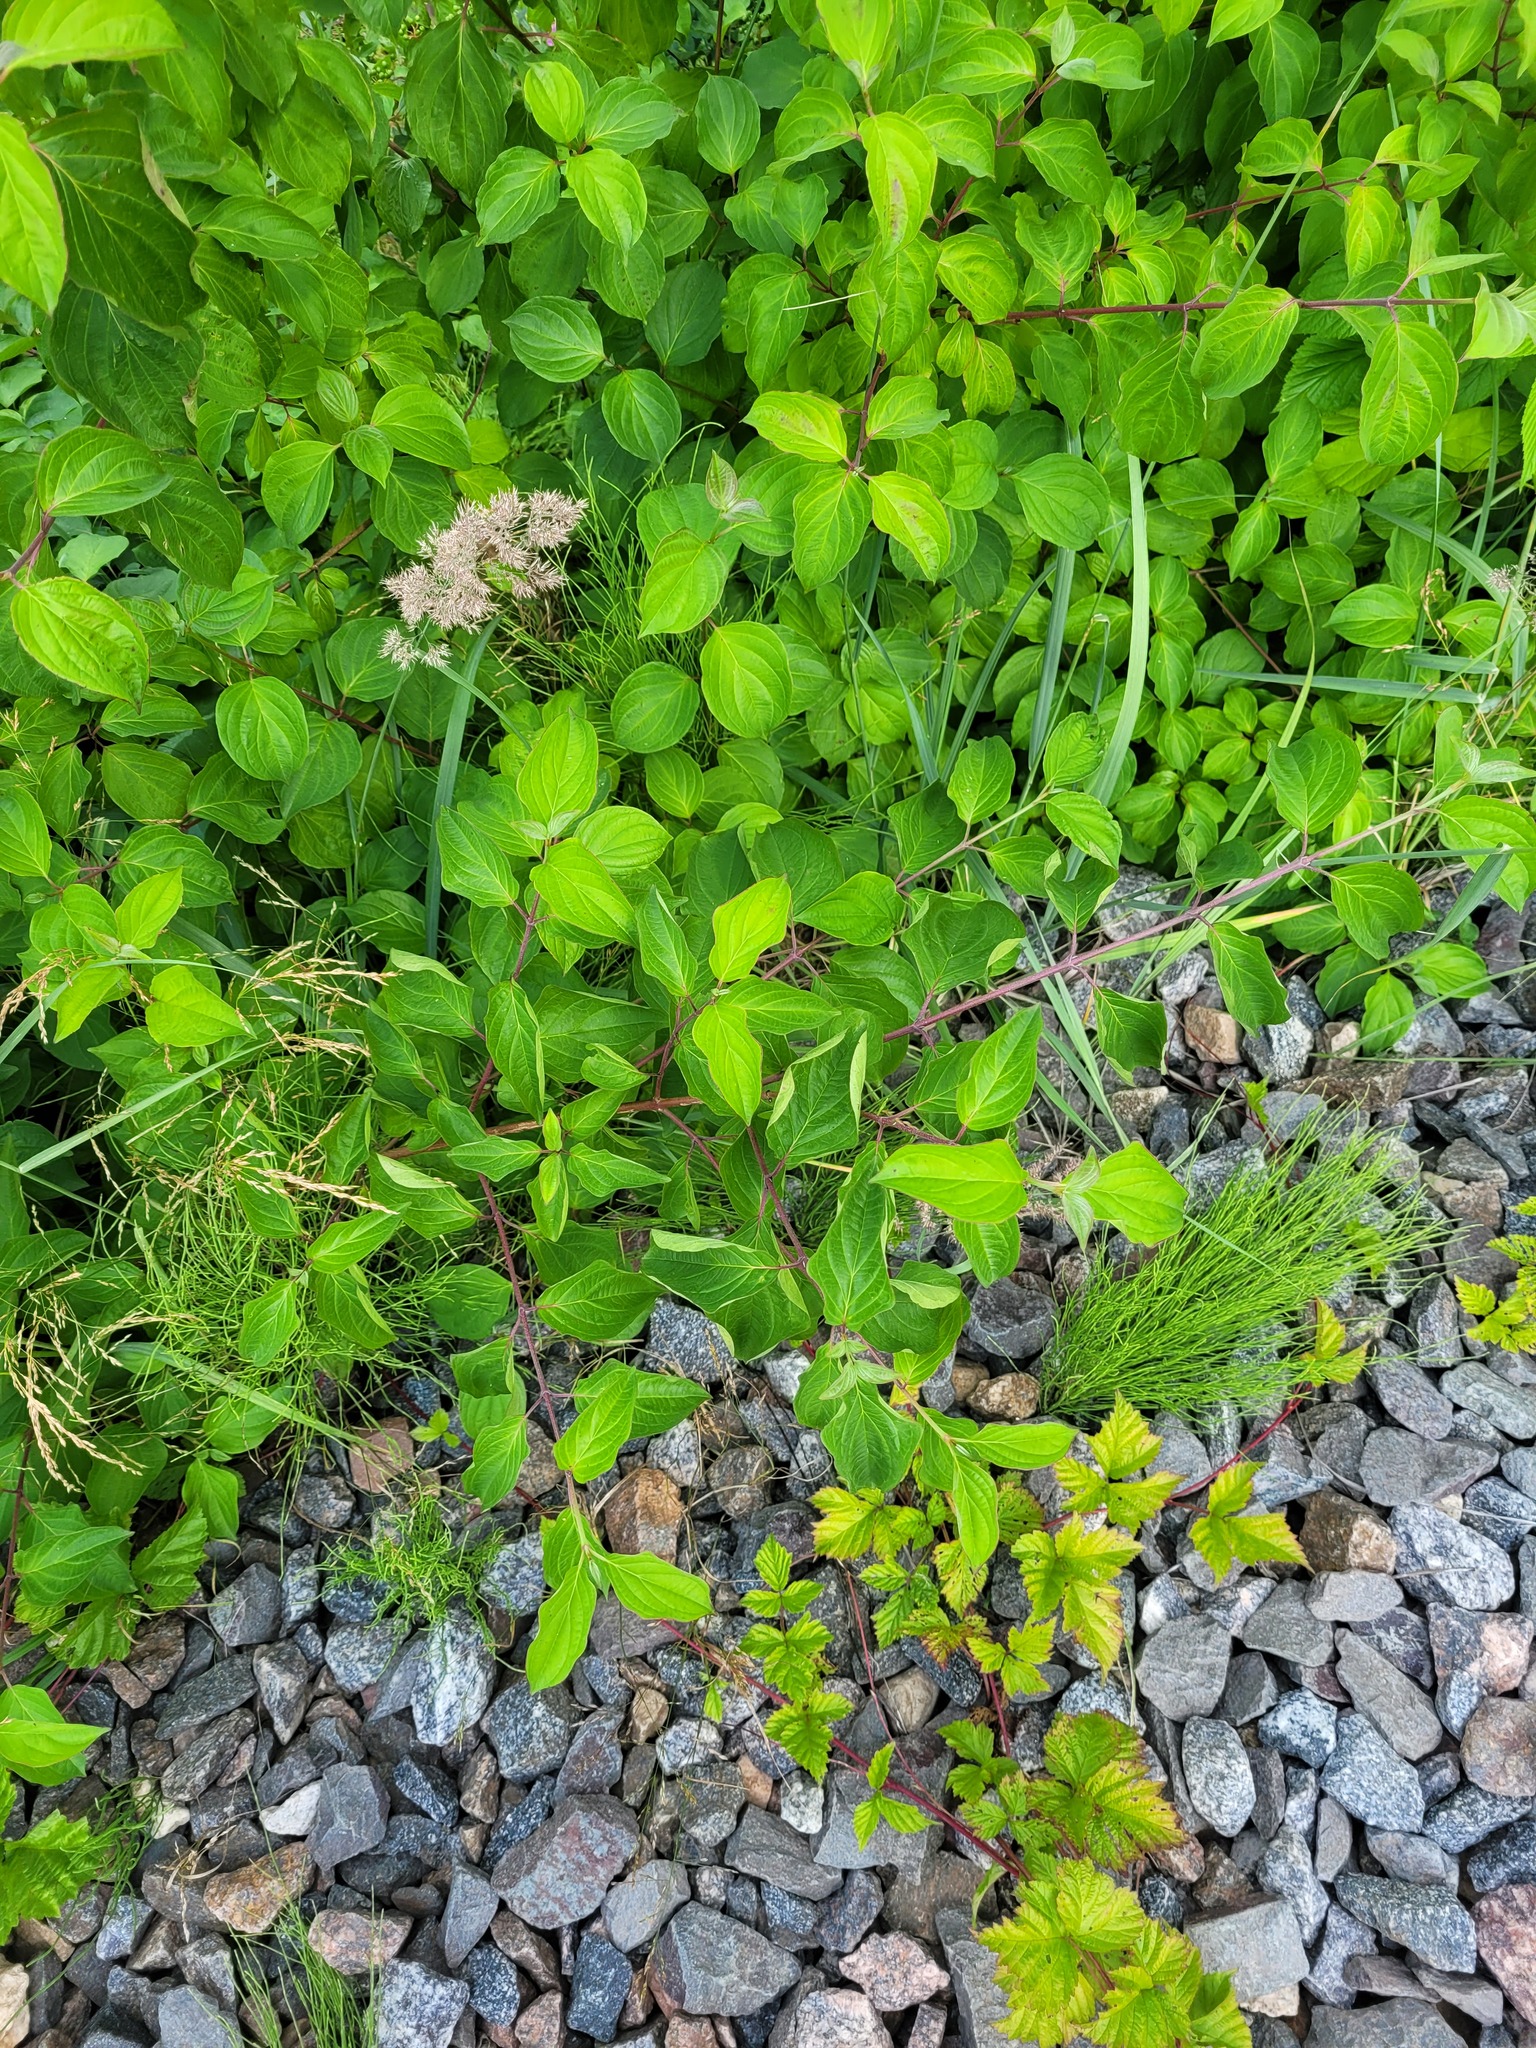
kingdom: Plantae
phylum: Tracheophyta
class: Magnoliopsida
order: Cornales
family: Cornaceae
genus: Cornus
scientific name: Cornus sanguinea
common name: Dogwood
